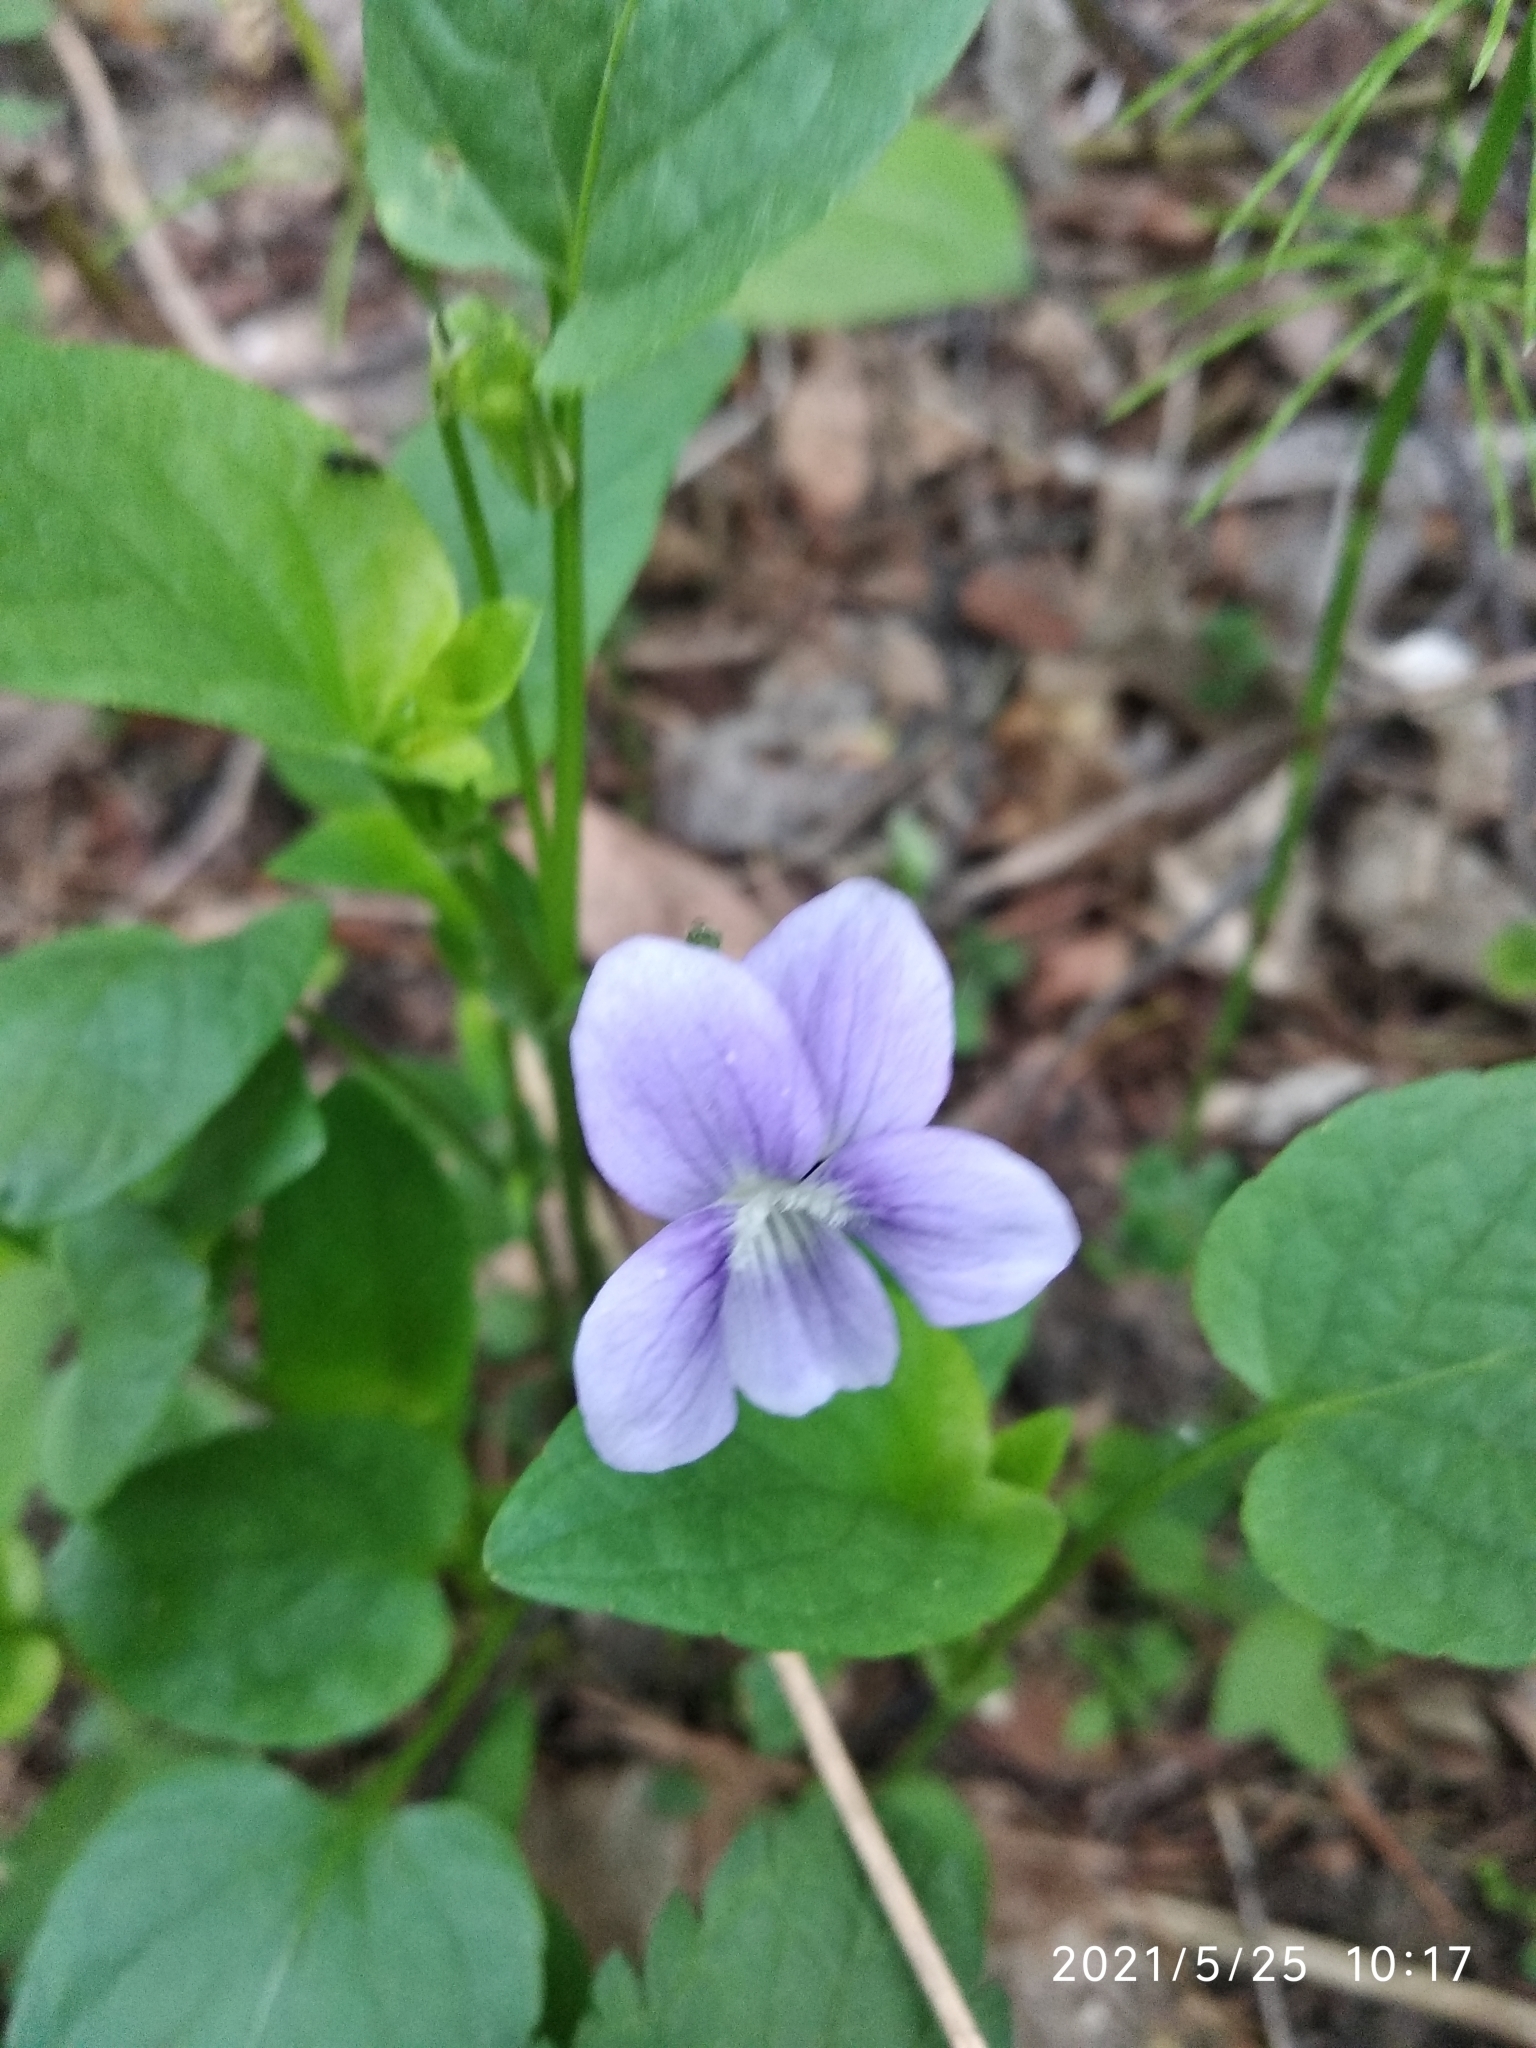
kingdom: Plantae
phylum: Tracheophyta
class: Magnoliopsida
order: Malpighiales
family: Violaceae
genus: Viola
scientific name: Viola canina
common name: Heath dog-violet
